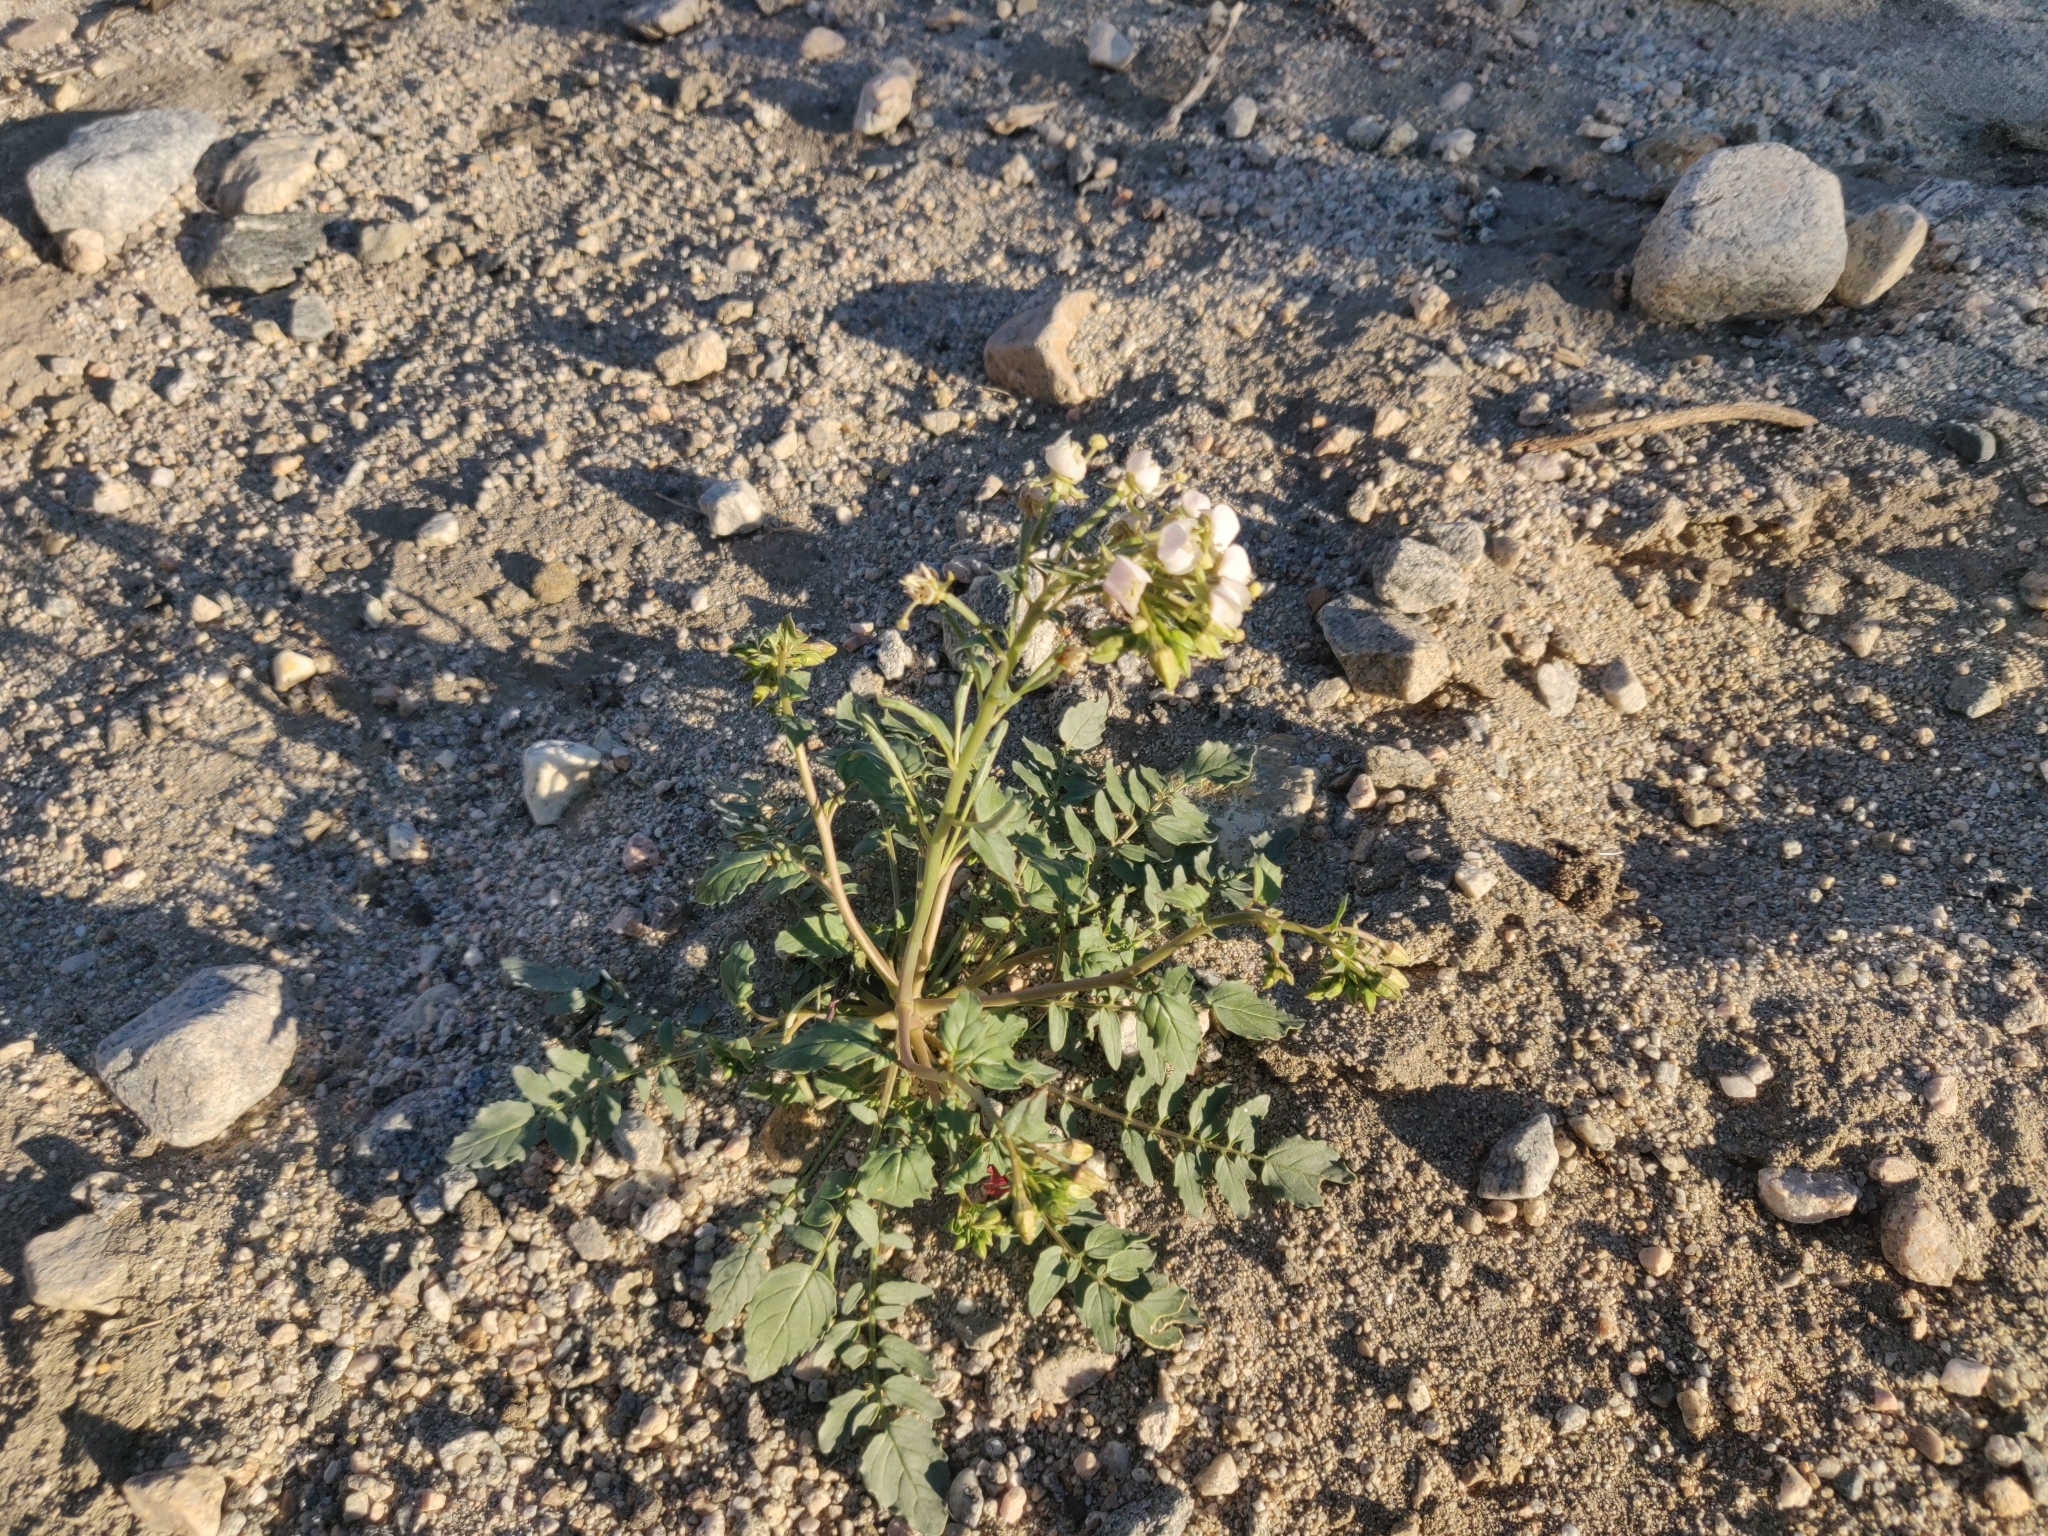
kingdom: Plantae
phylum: Tracheophyta
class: Magnoliopsida
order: Myrtales
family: Onagraceae
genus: Chylismia
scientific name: Chylismia claviformis
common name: Browneyes
